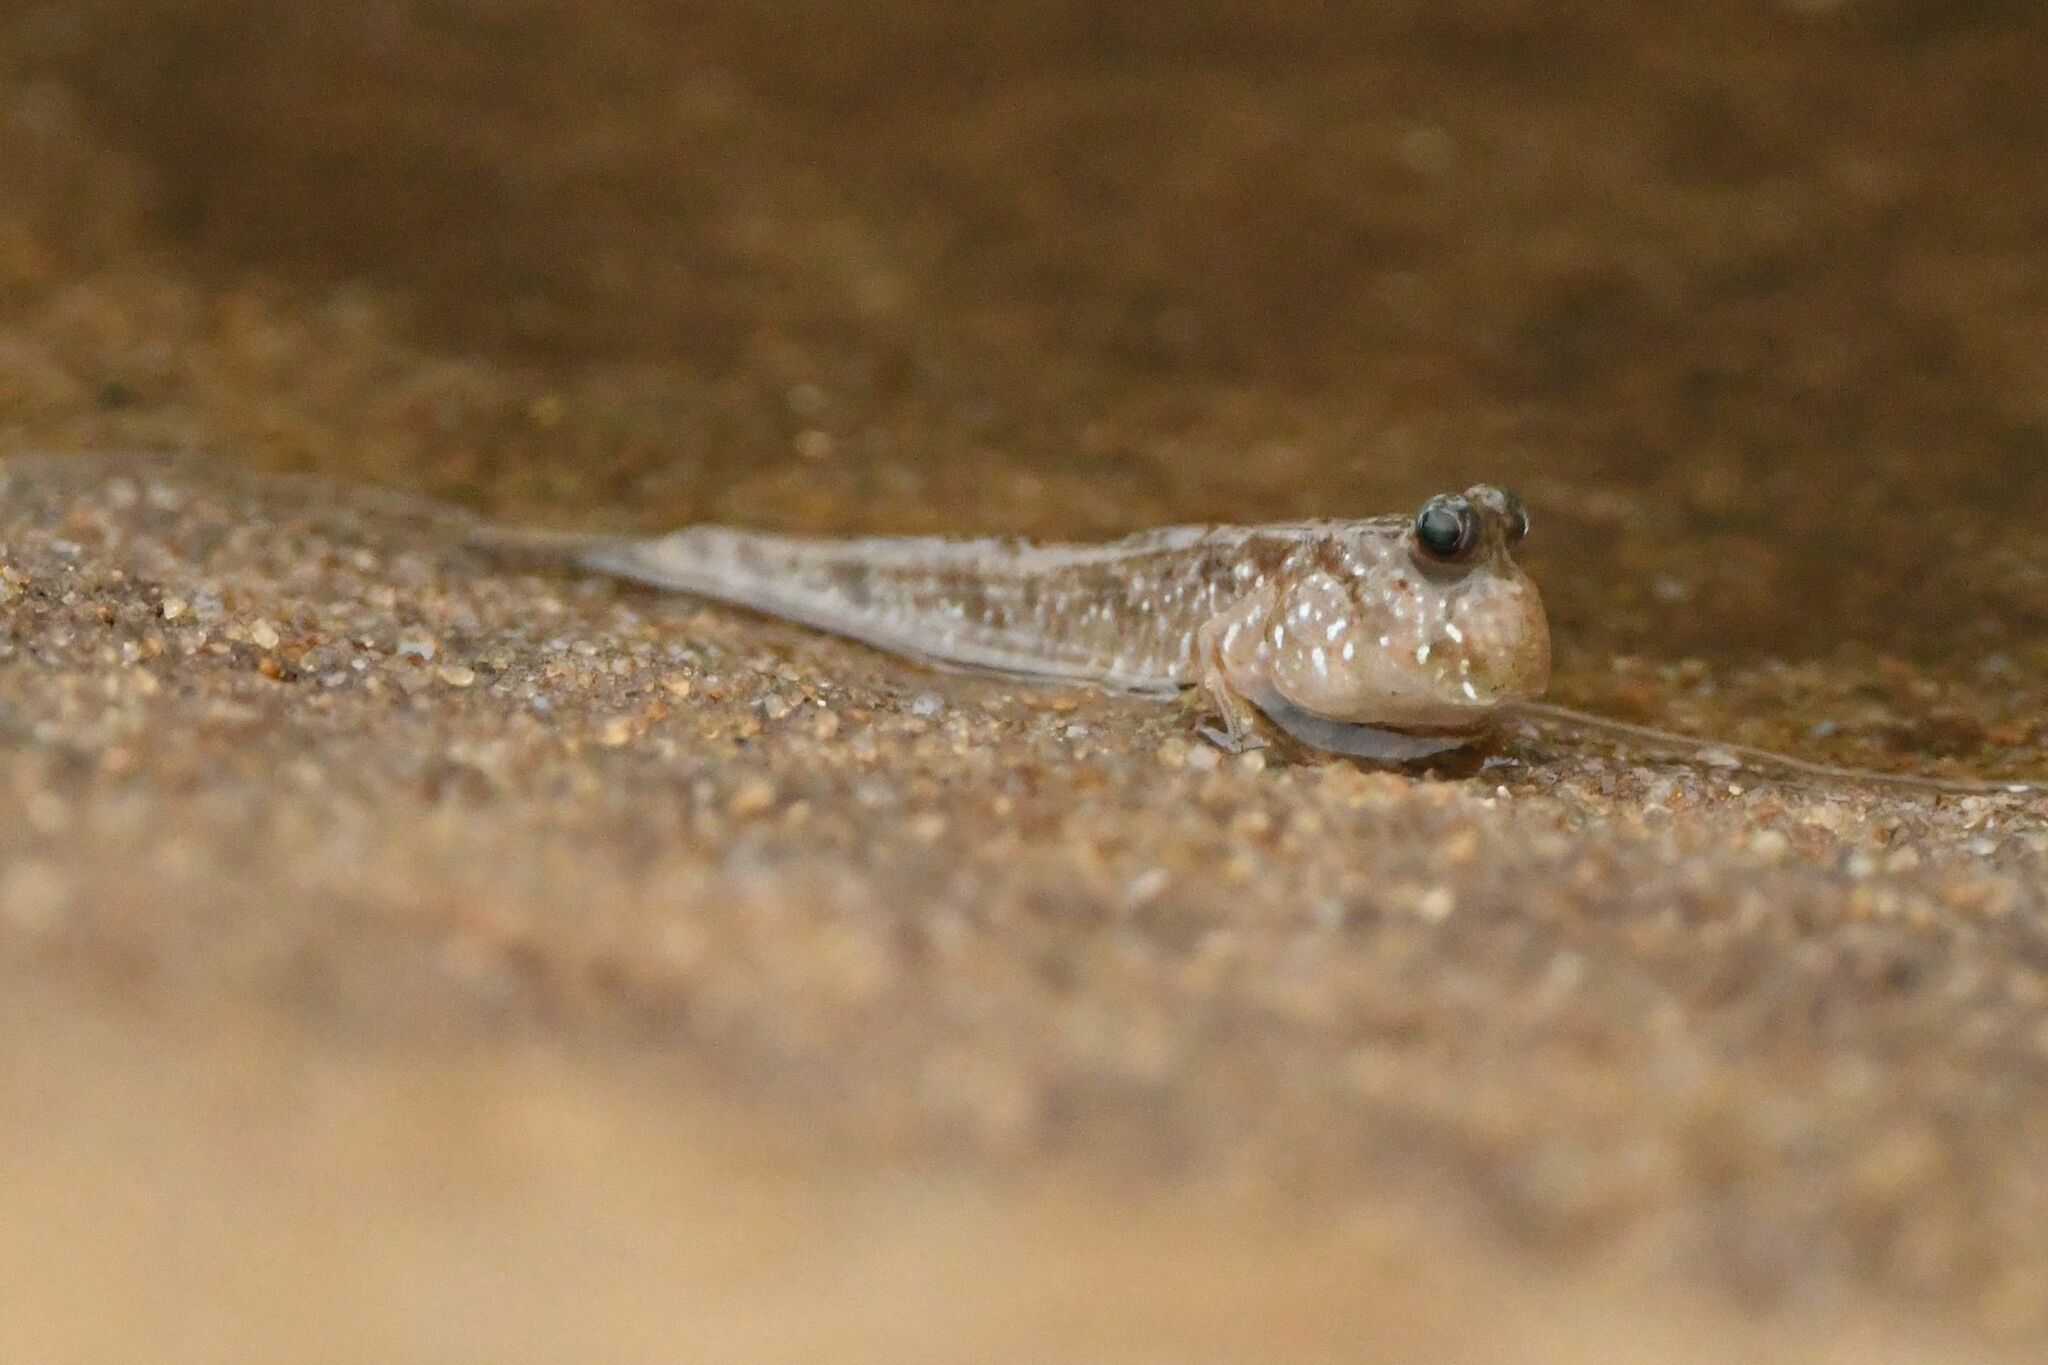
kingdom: Animalia
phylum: Chordata
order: Perciformes
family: Gobiidae
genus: Periophthalmus
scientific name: Periophthalmus barbarus
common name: Atlantic mudskipper
